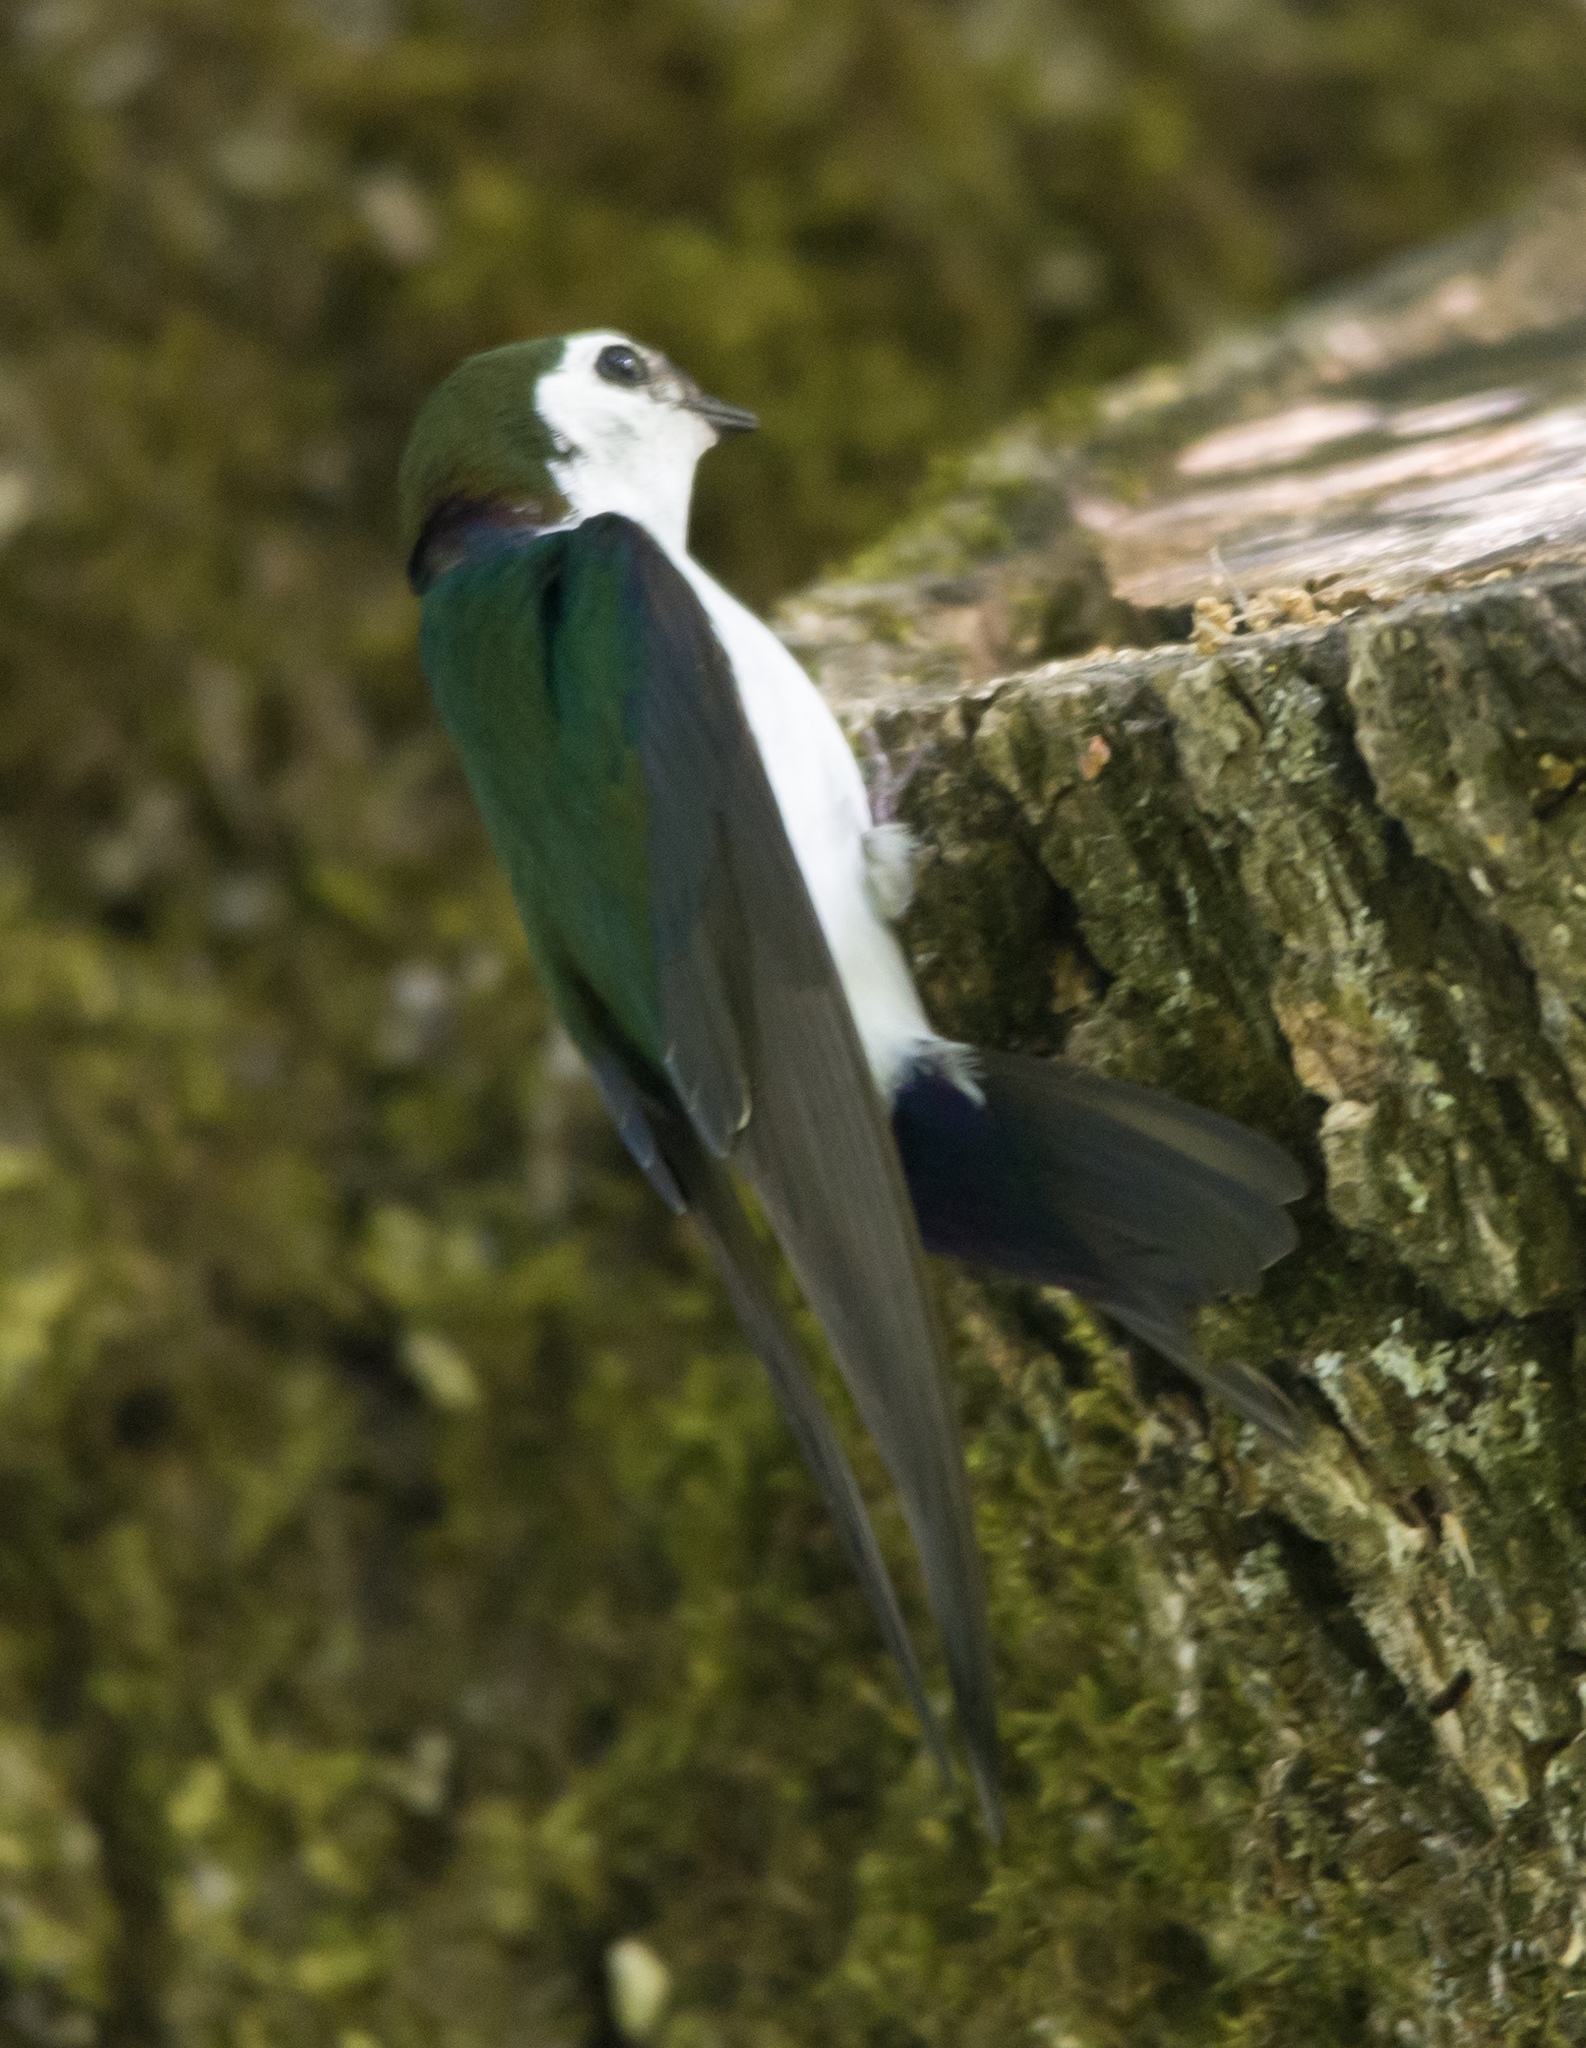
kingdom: Animalia
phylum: Chordata
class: Aves
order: Passeriformes
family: Hirundinidae
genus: Tachycineta
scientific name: Tachycineta thalassina
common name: Violet-green swallow
